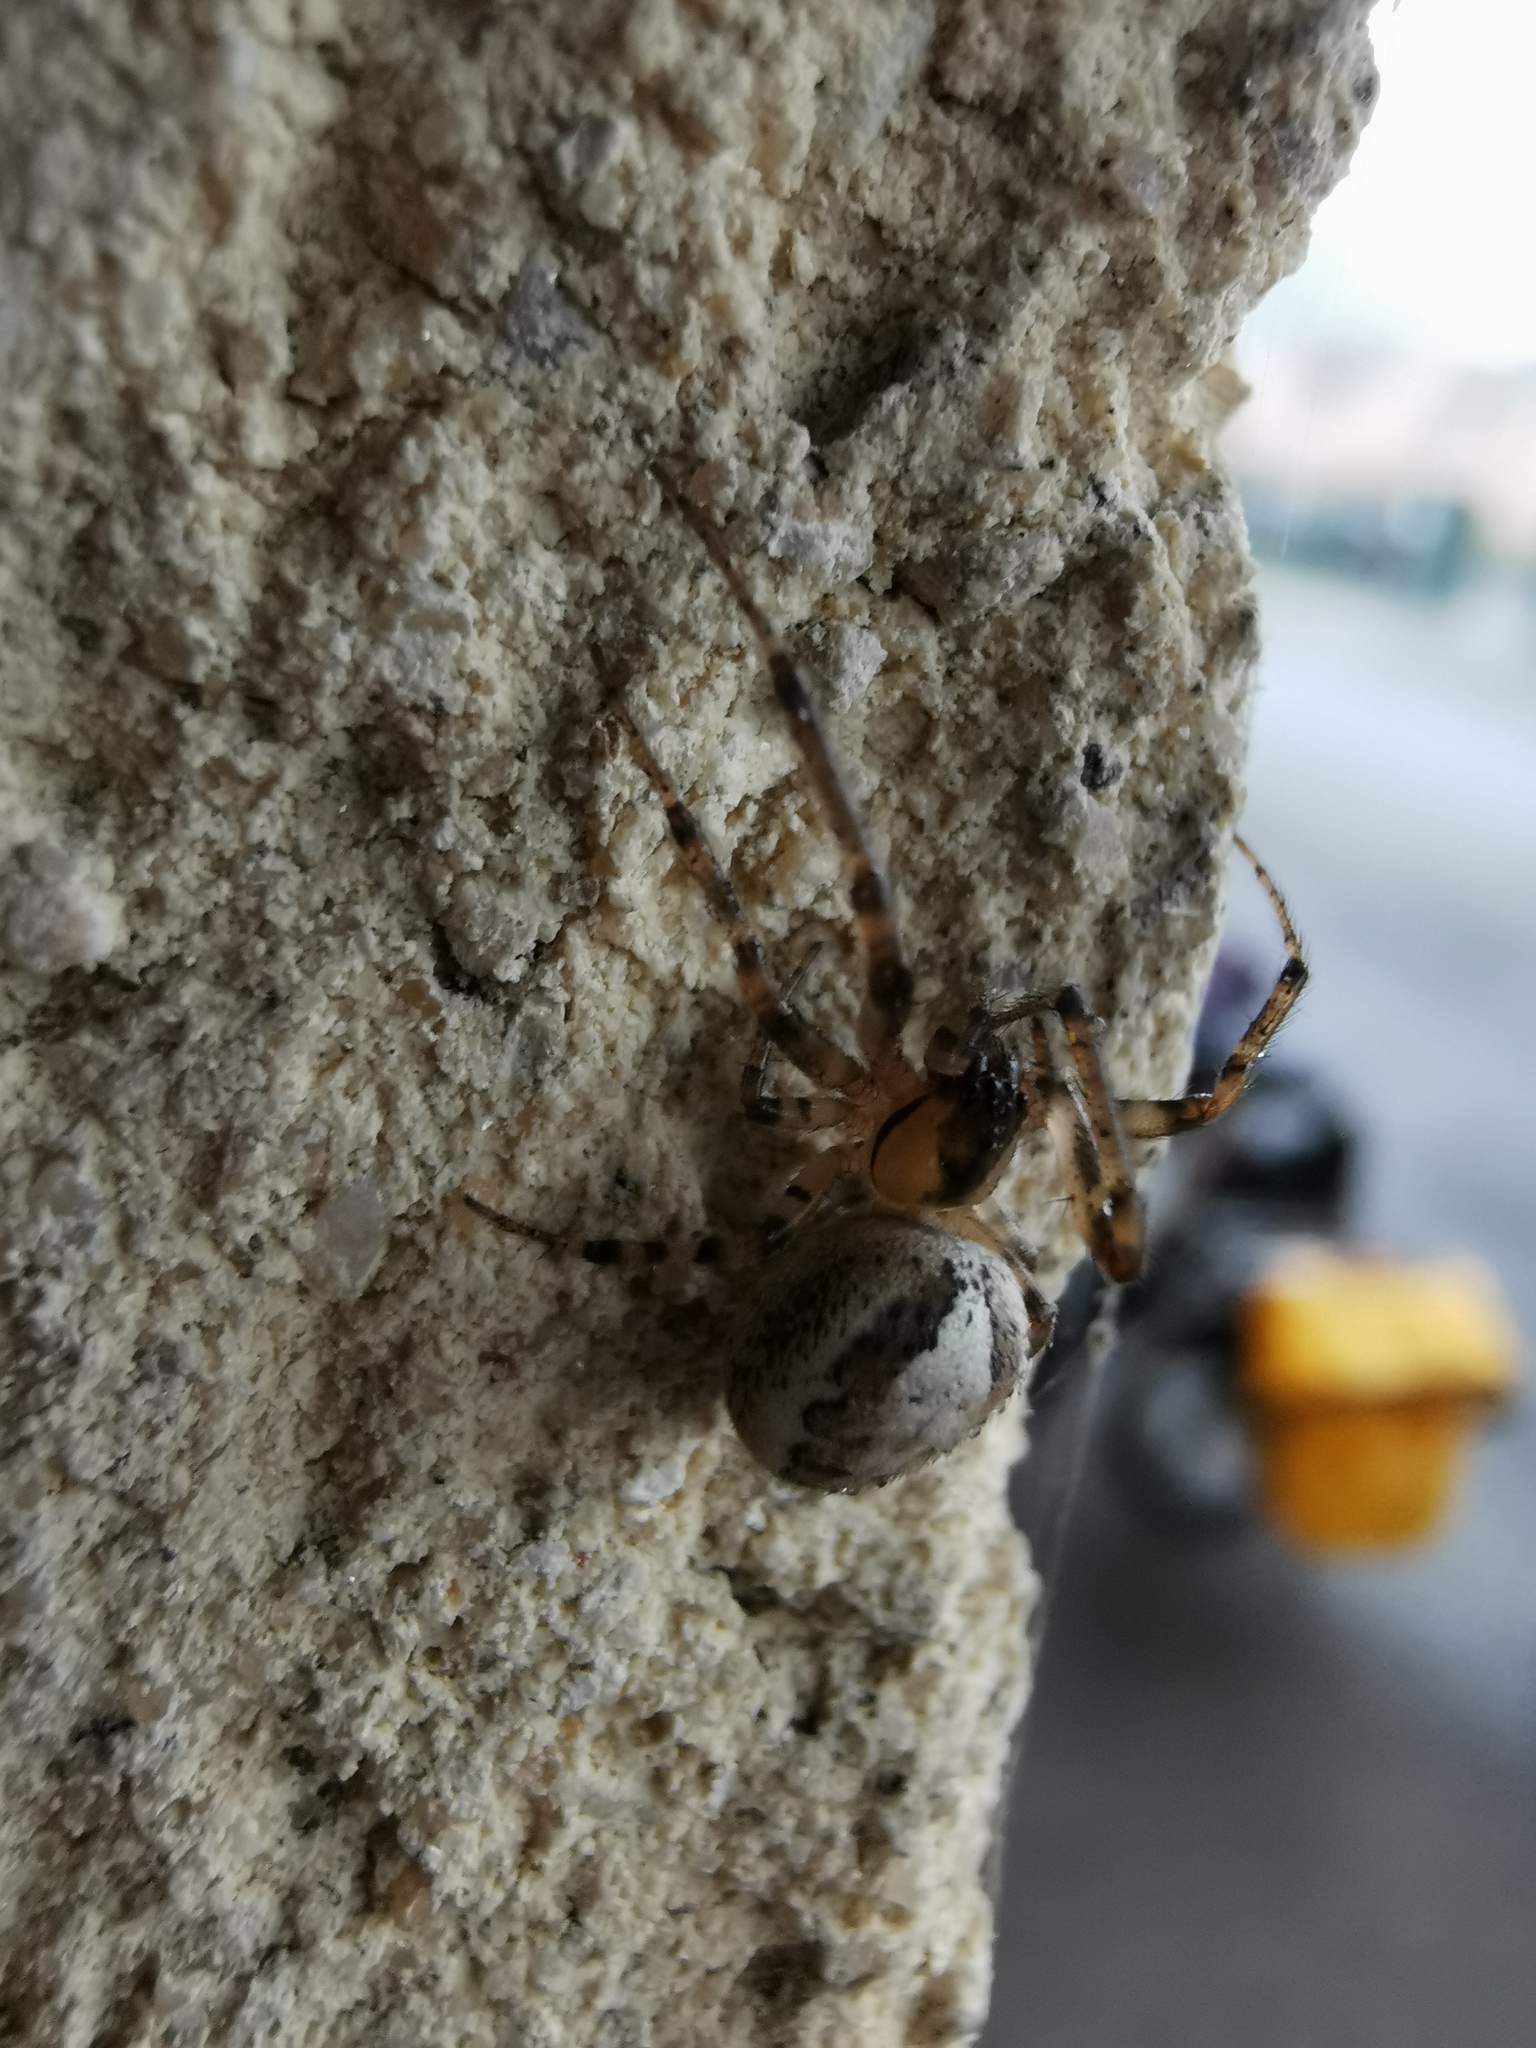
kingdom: Animalia
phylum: Arthropoda
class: Arachnida
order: Araneae
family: Araneidae
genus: Zygiella
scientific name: Zygiella x-notata
